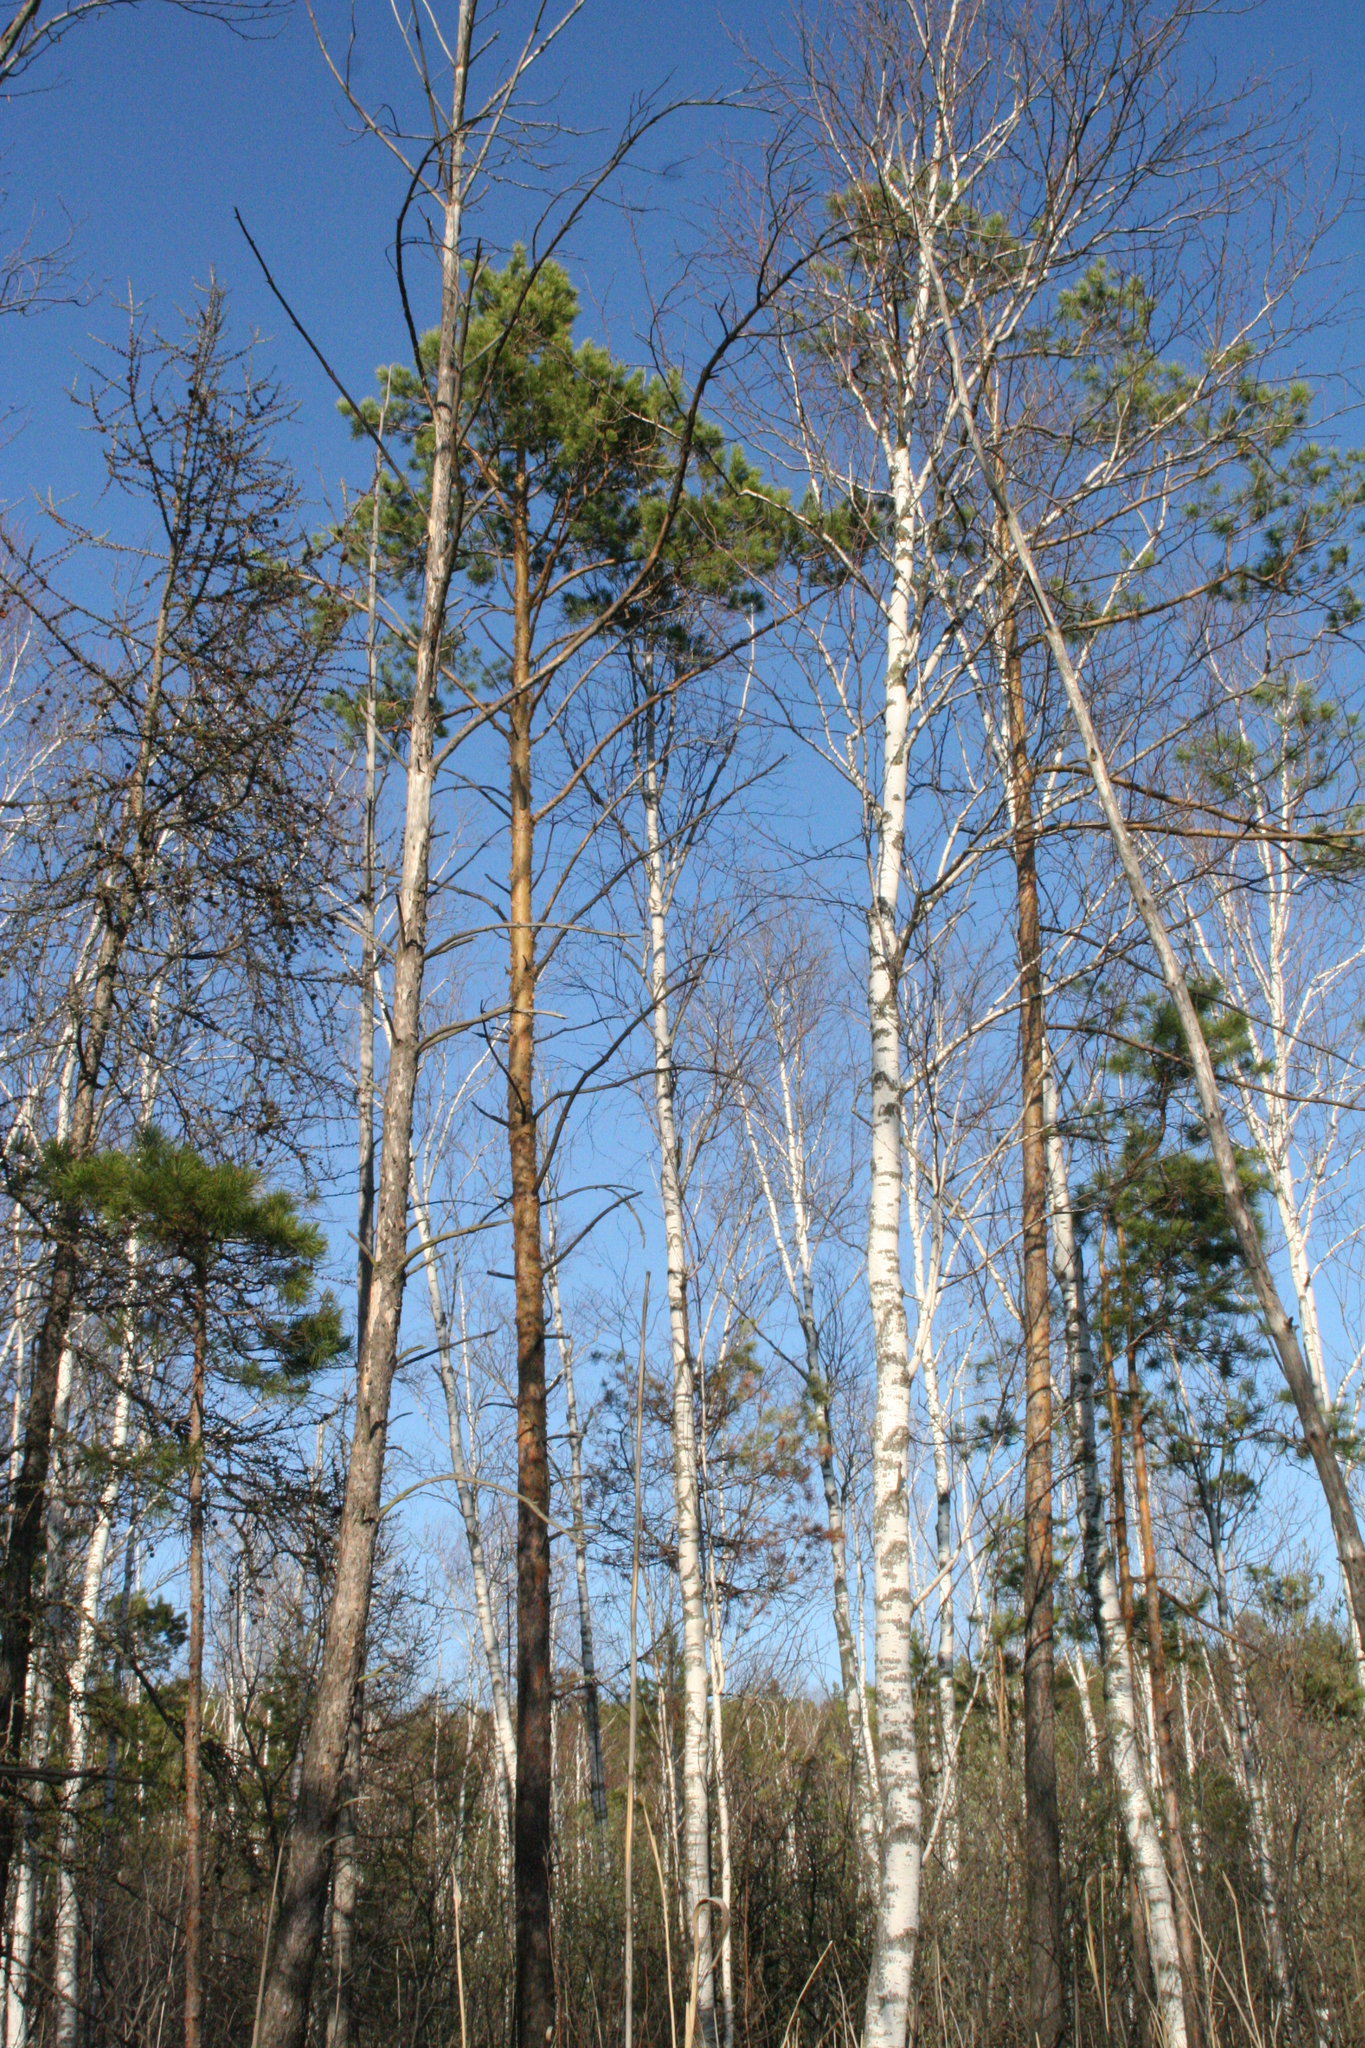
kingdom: Plantae
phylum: Tracheophyta
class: Magnoliopsida
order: Fagales
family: Betulaceae
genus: Betula
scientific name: Betula pubescens
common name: Downy birch
